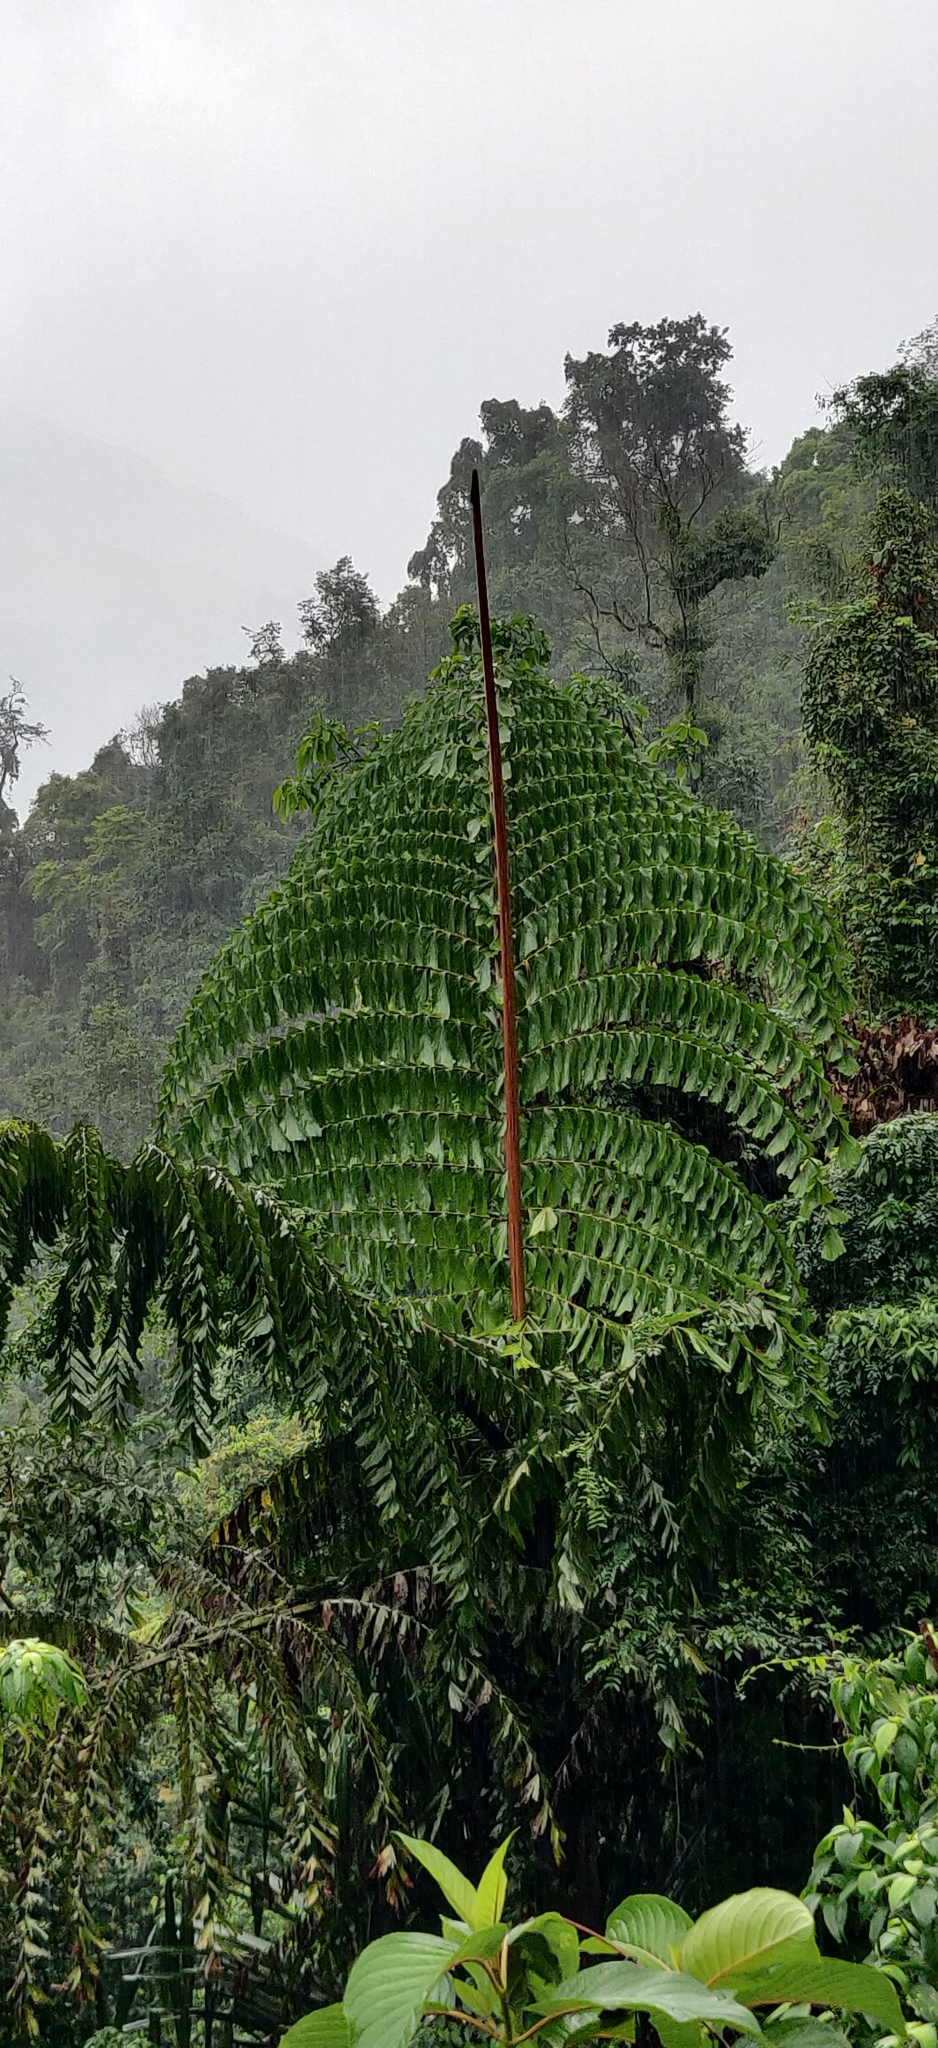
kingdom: Plantae
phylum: Tracheophyta
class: Liliopsida
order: Arecales
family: Arecaceae
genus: Caryota
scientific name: Caryota obtusa
